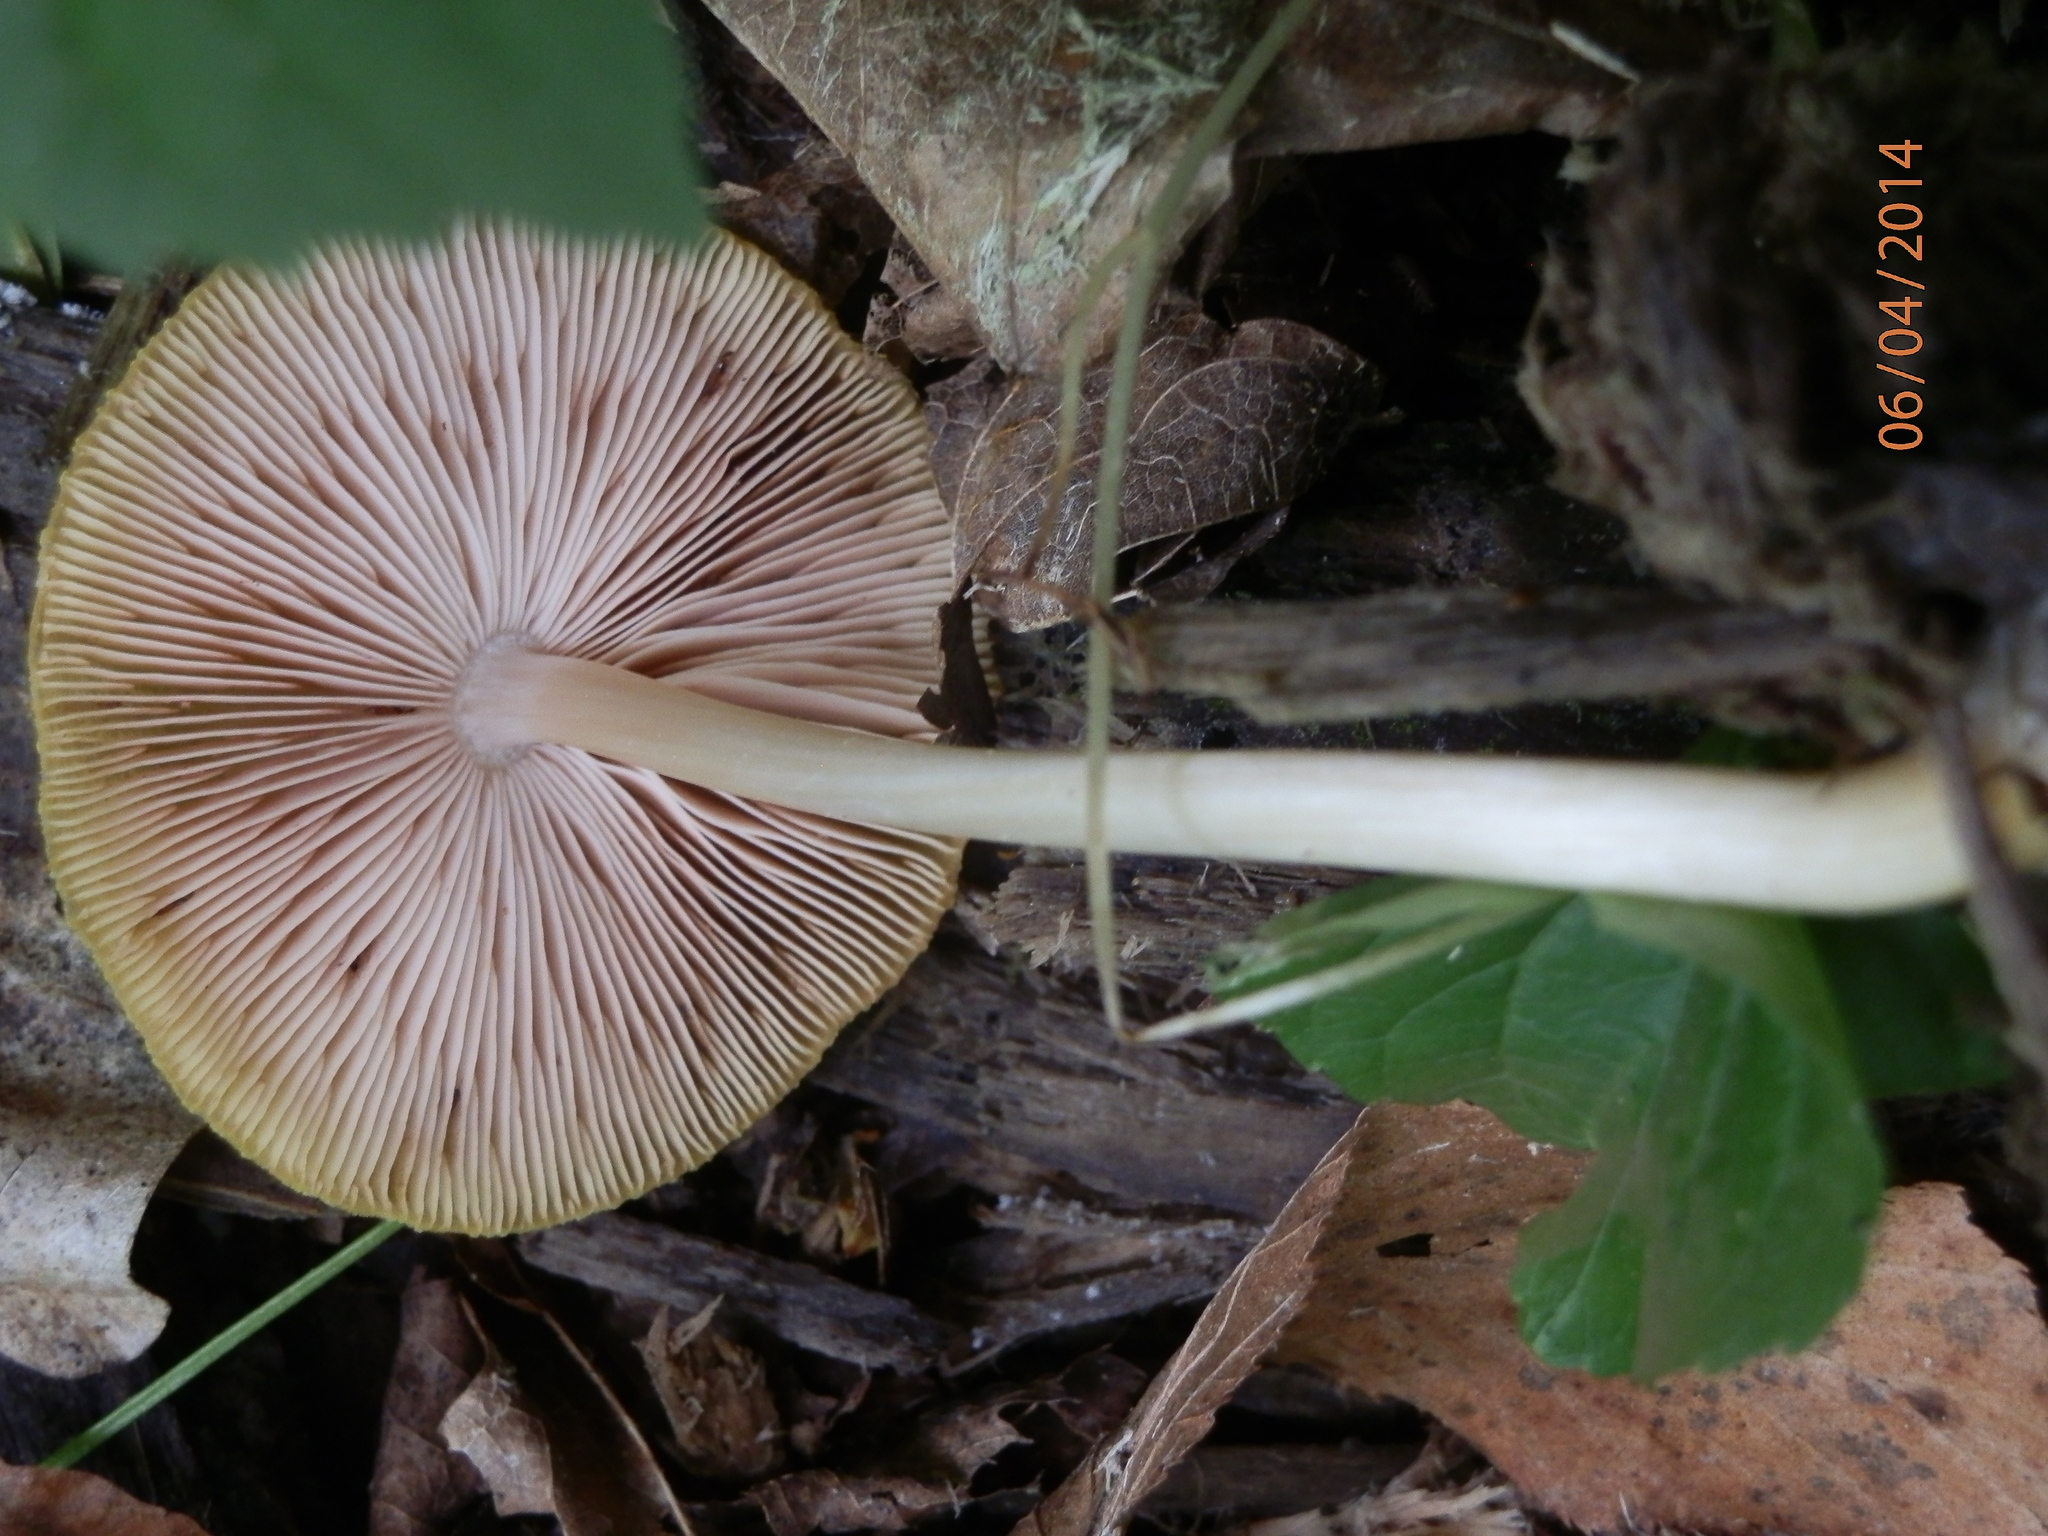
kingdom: Fungi
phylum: Basidiomycota
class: Agaricomycetes
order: Agaricales
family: Pluteaceae
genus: Pluteus
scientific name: Pluteus leoninus
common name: Lion shield
